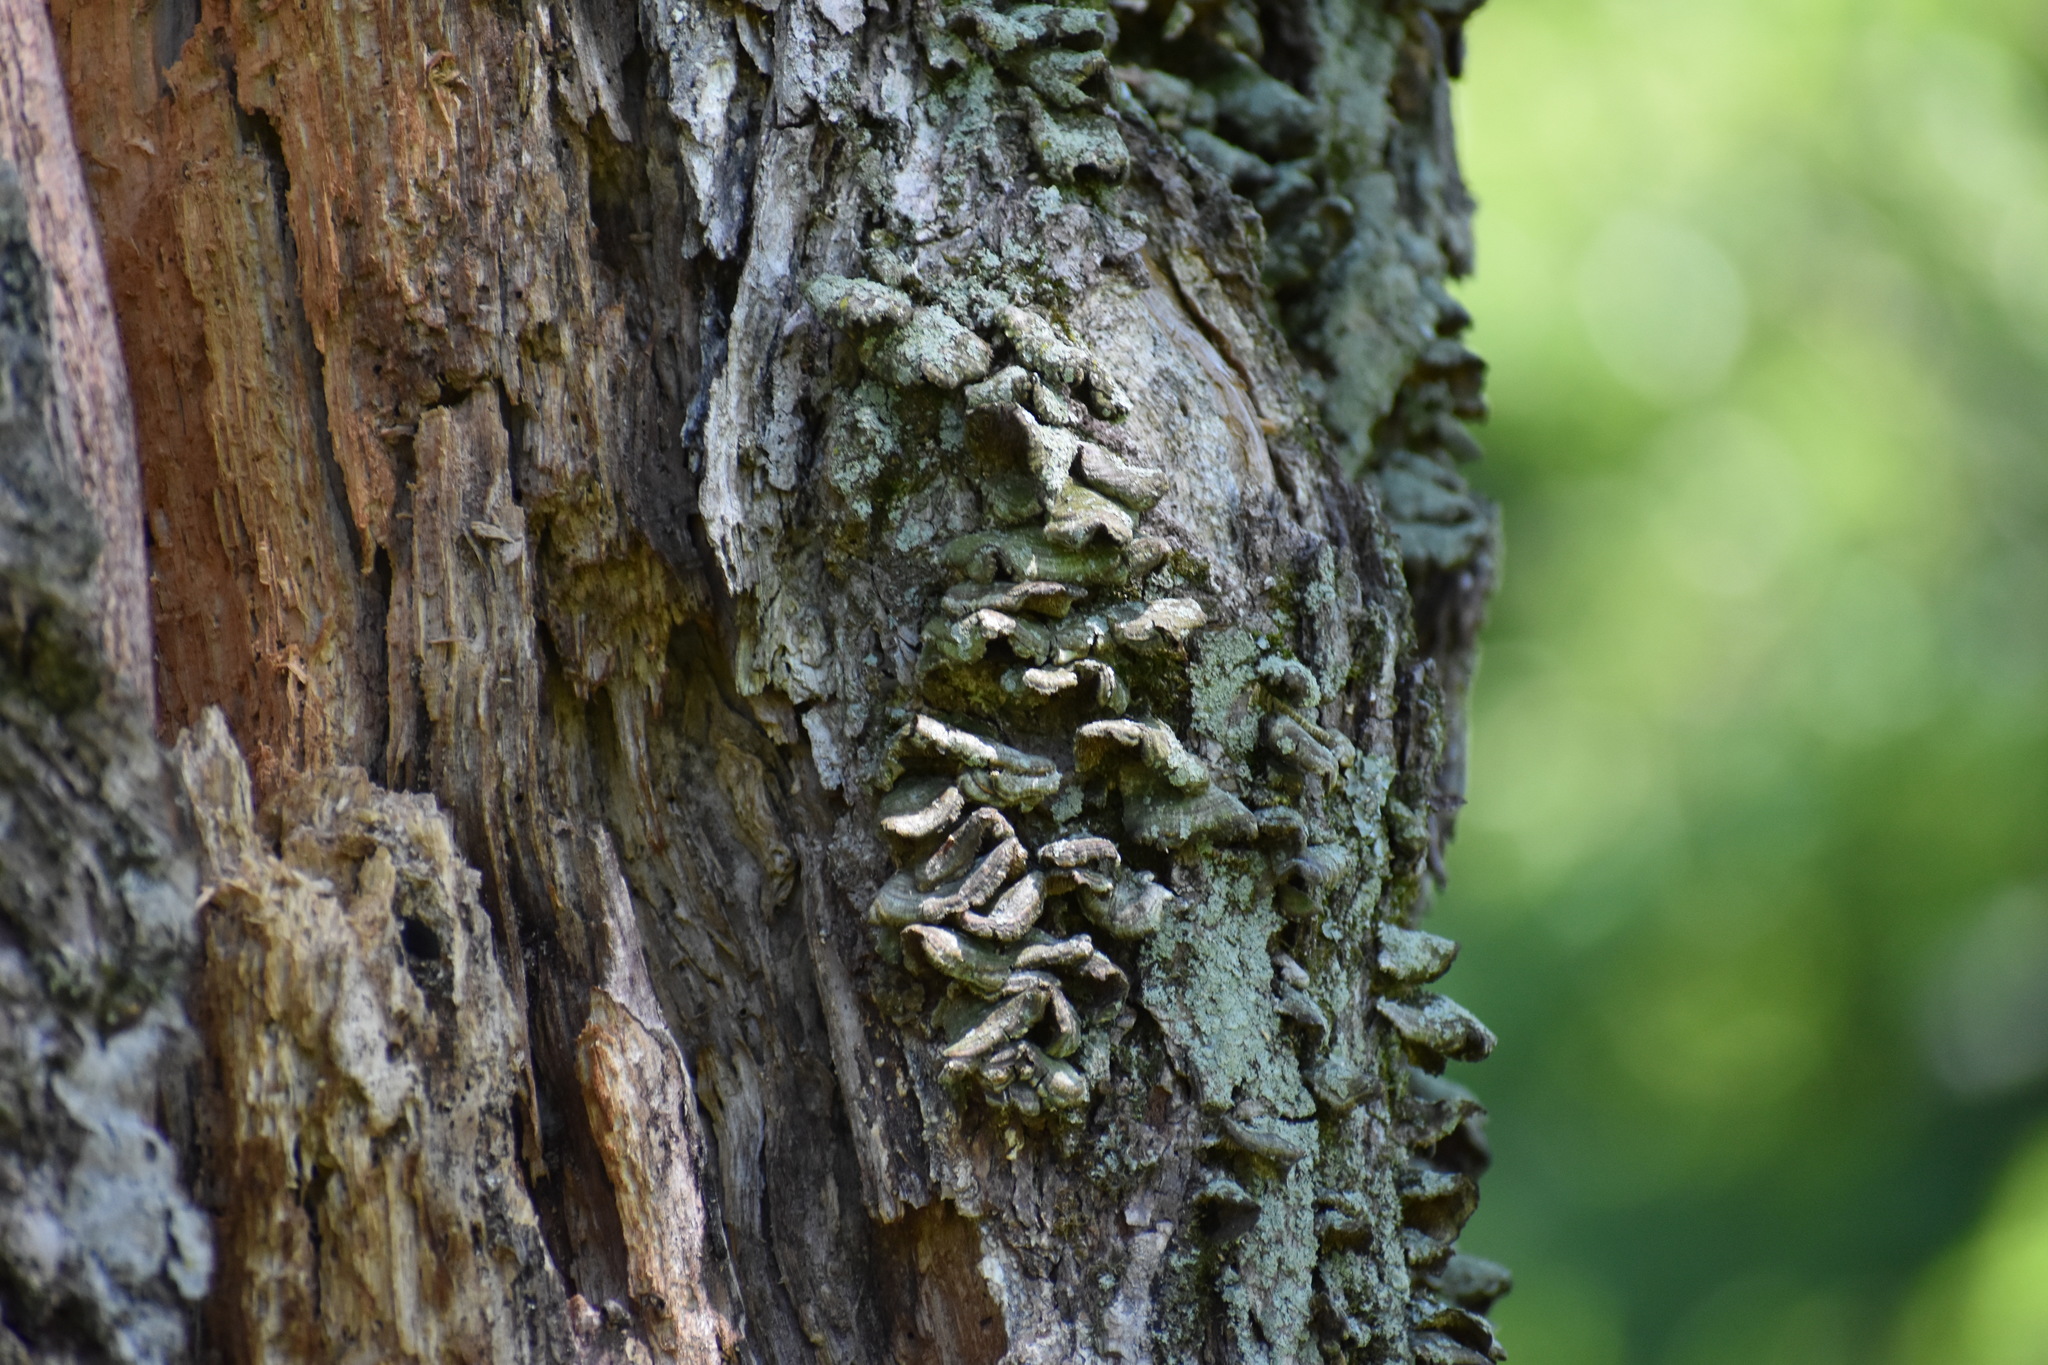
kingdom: Fungi
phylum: Basidiomycota
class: Agaricomycetes
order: Hymenochaetales
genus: Trichaptum
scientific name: Trichaptum biforme
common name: Violet-toothed polypore
